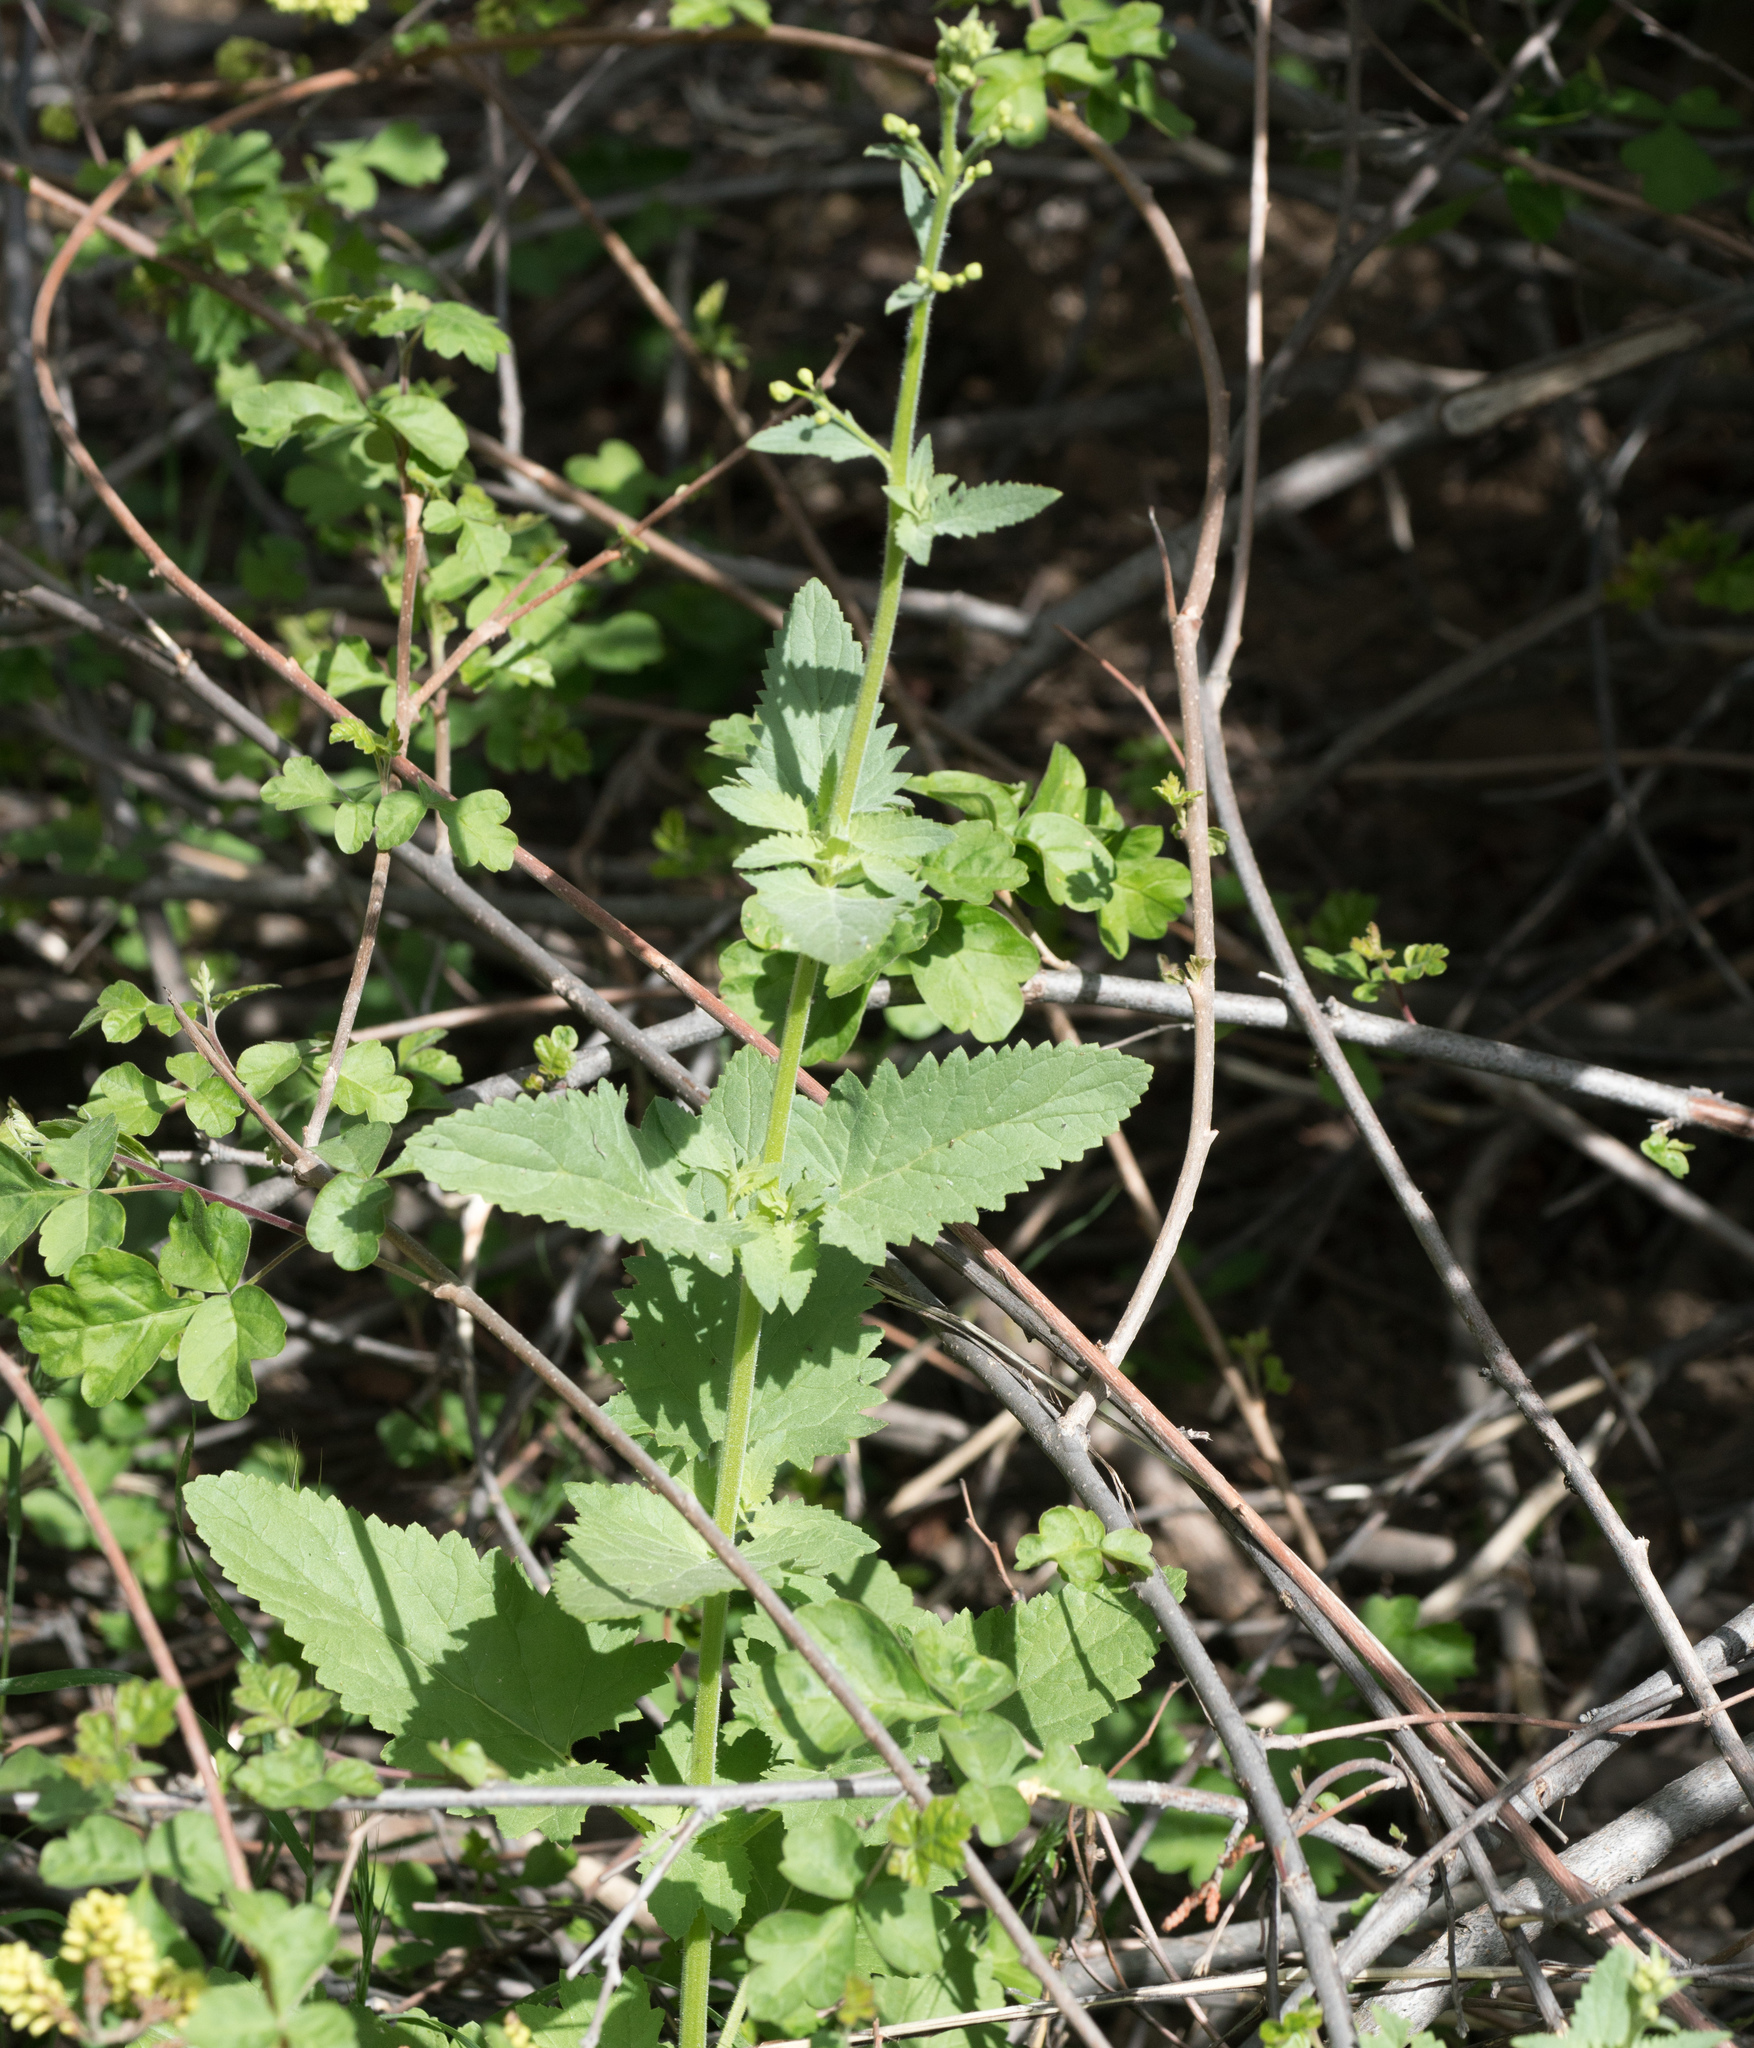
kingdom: Plantae
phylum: Tracheophyta
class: Magnoliopsida
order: Lamiales
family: Scrophulariaceae
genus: Scrophularia
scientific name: Scrophularia californica
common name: California figwort
